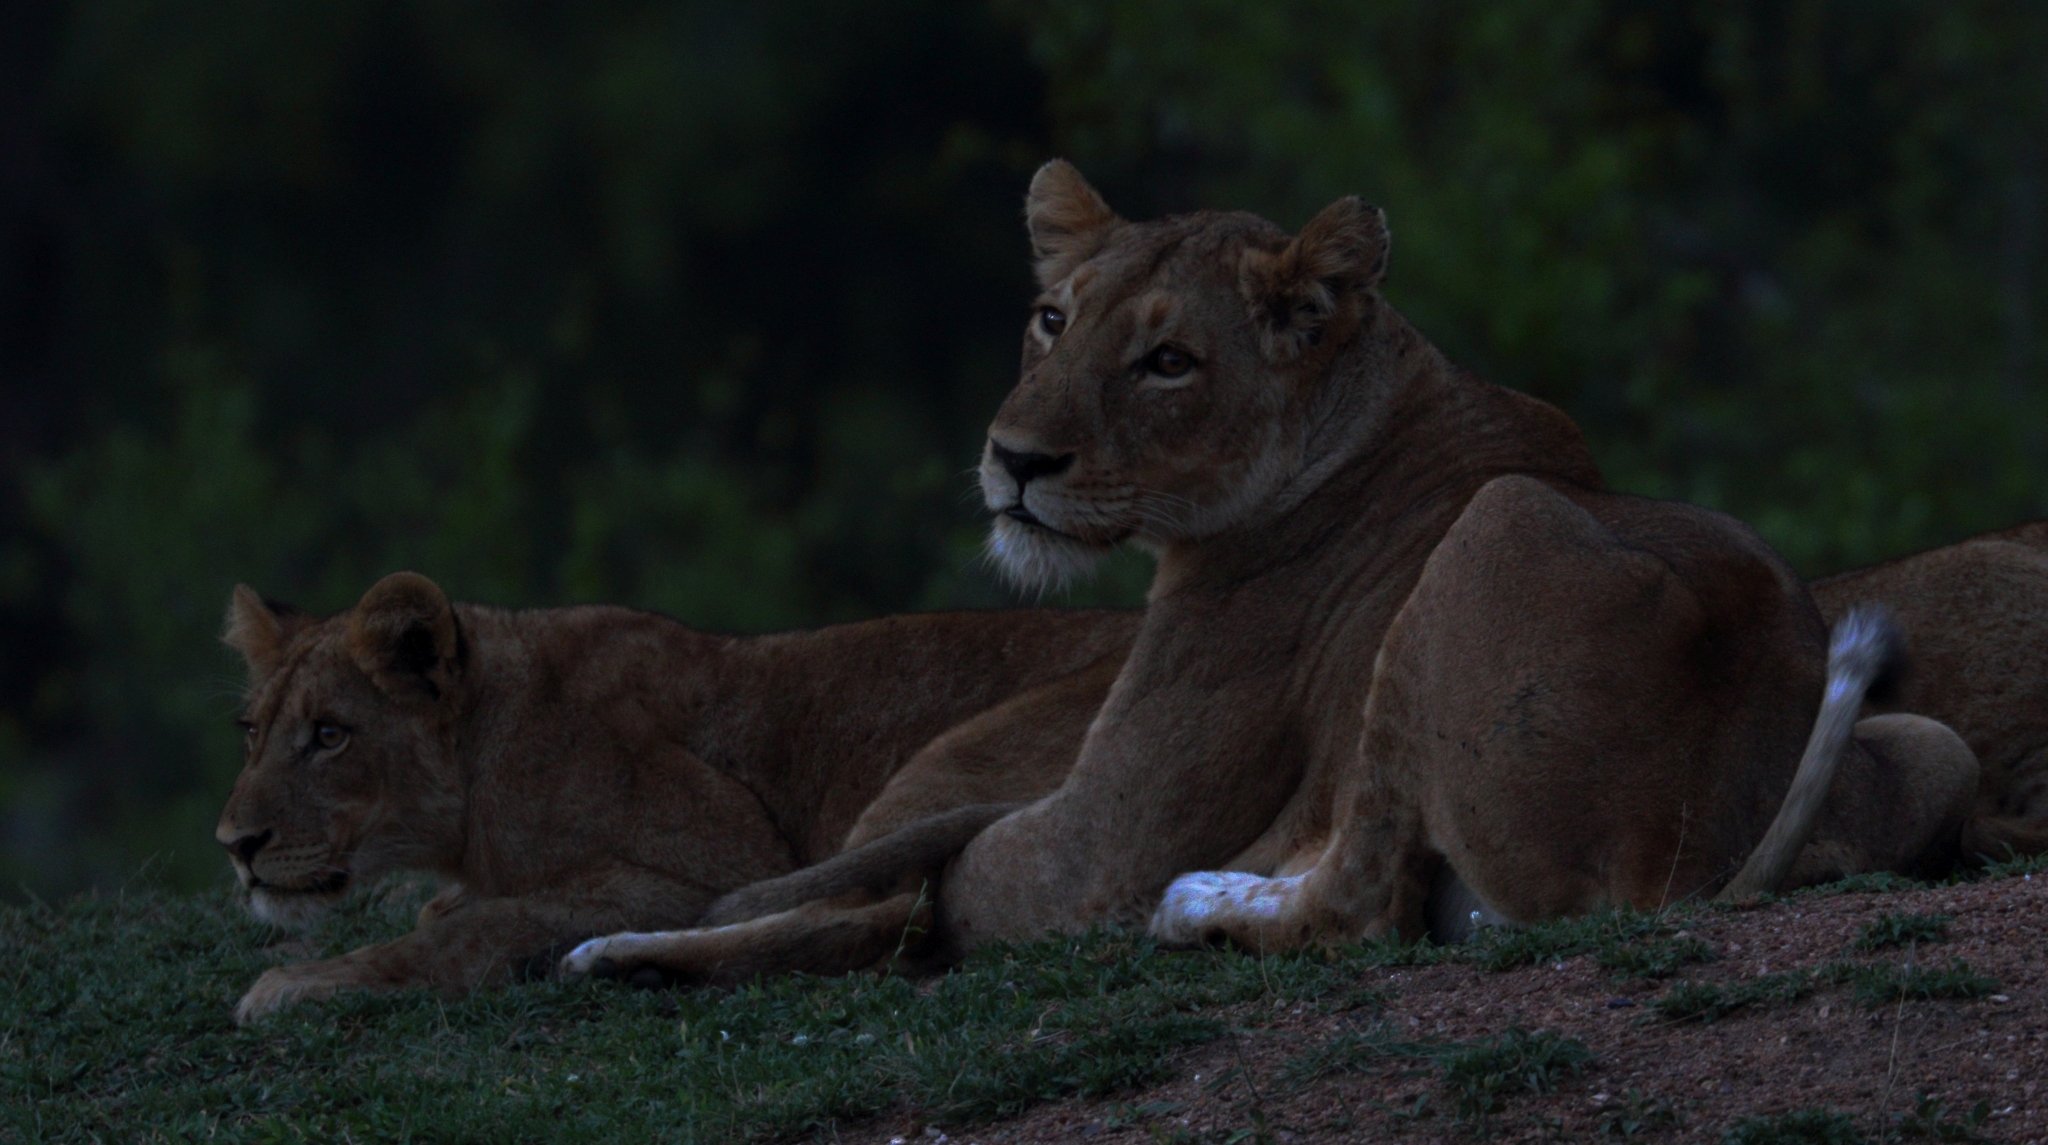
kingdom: Animalia
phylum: Chordata
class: Mammalia
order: Carnivora
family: Felidae
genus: Panthera
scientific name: Panthera leo
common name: Lion
